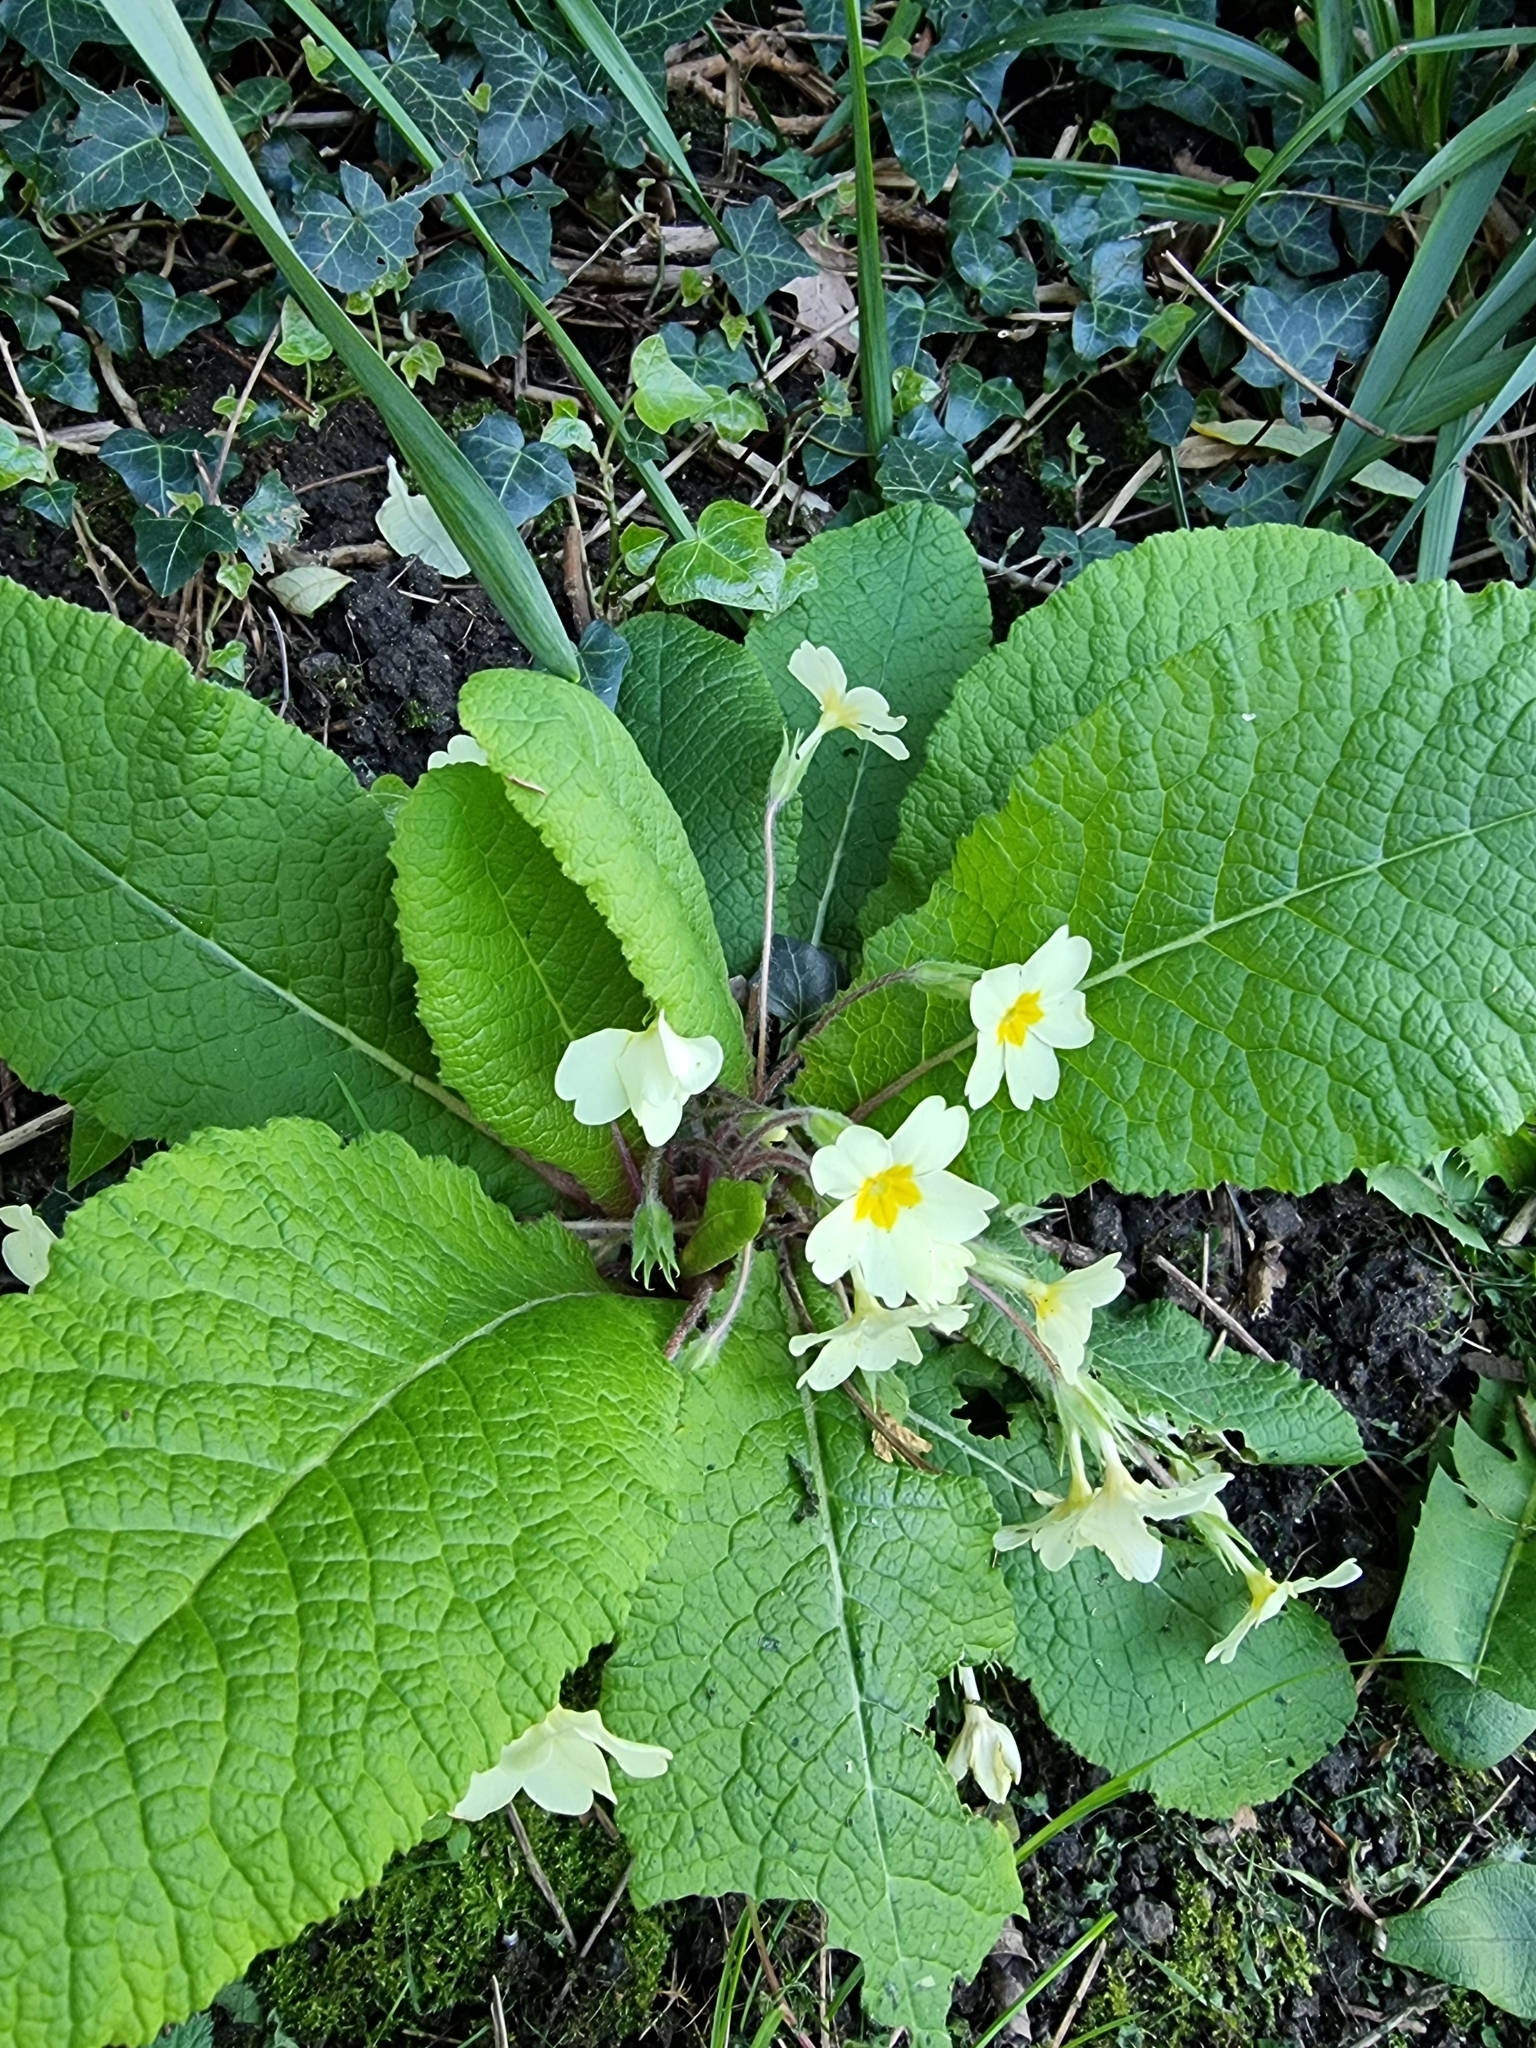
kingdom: Plantae
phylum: Tracheophyta
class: Magnoliopsida
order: Ericales
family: Primulaceae
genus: Primula
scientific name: Primula vulgaris
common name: Primrose
